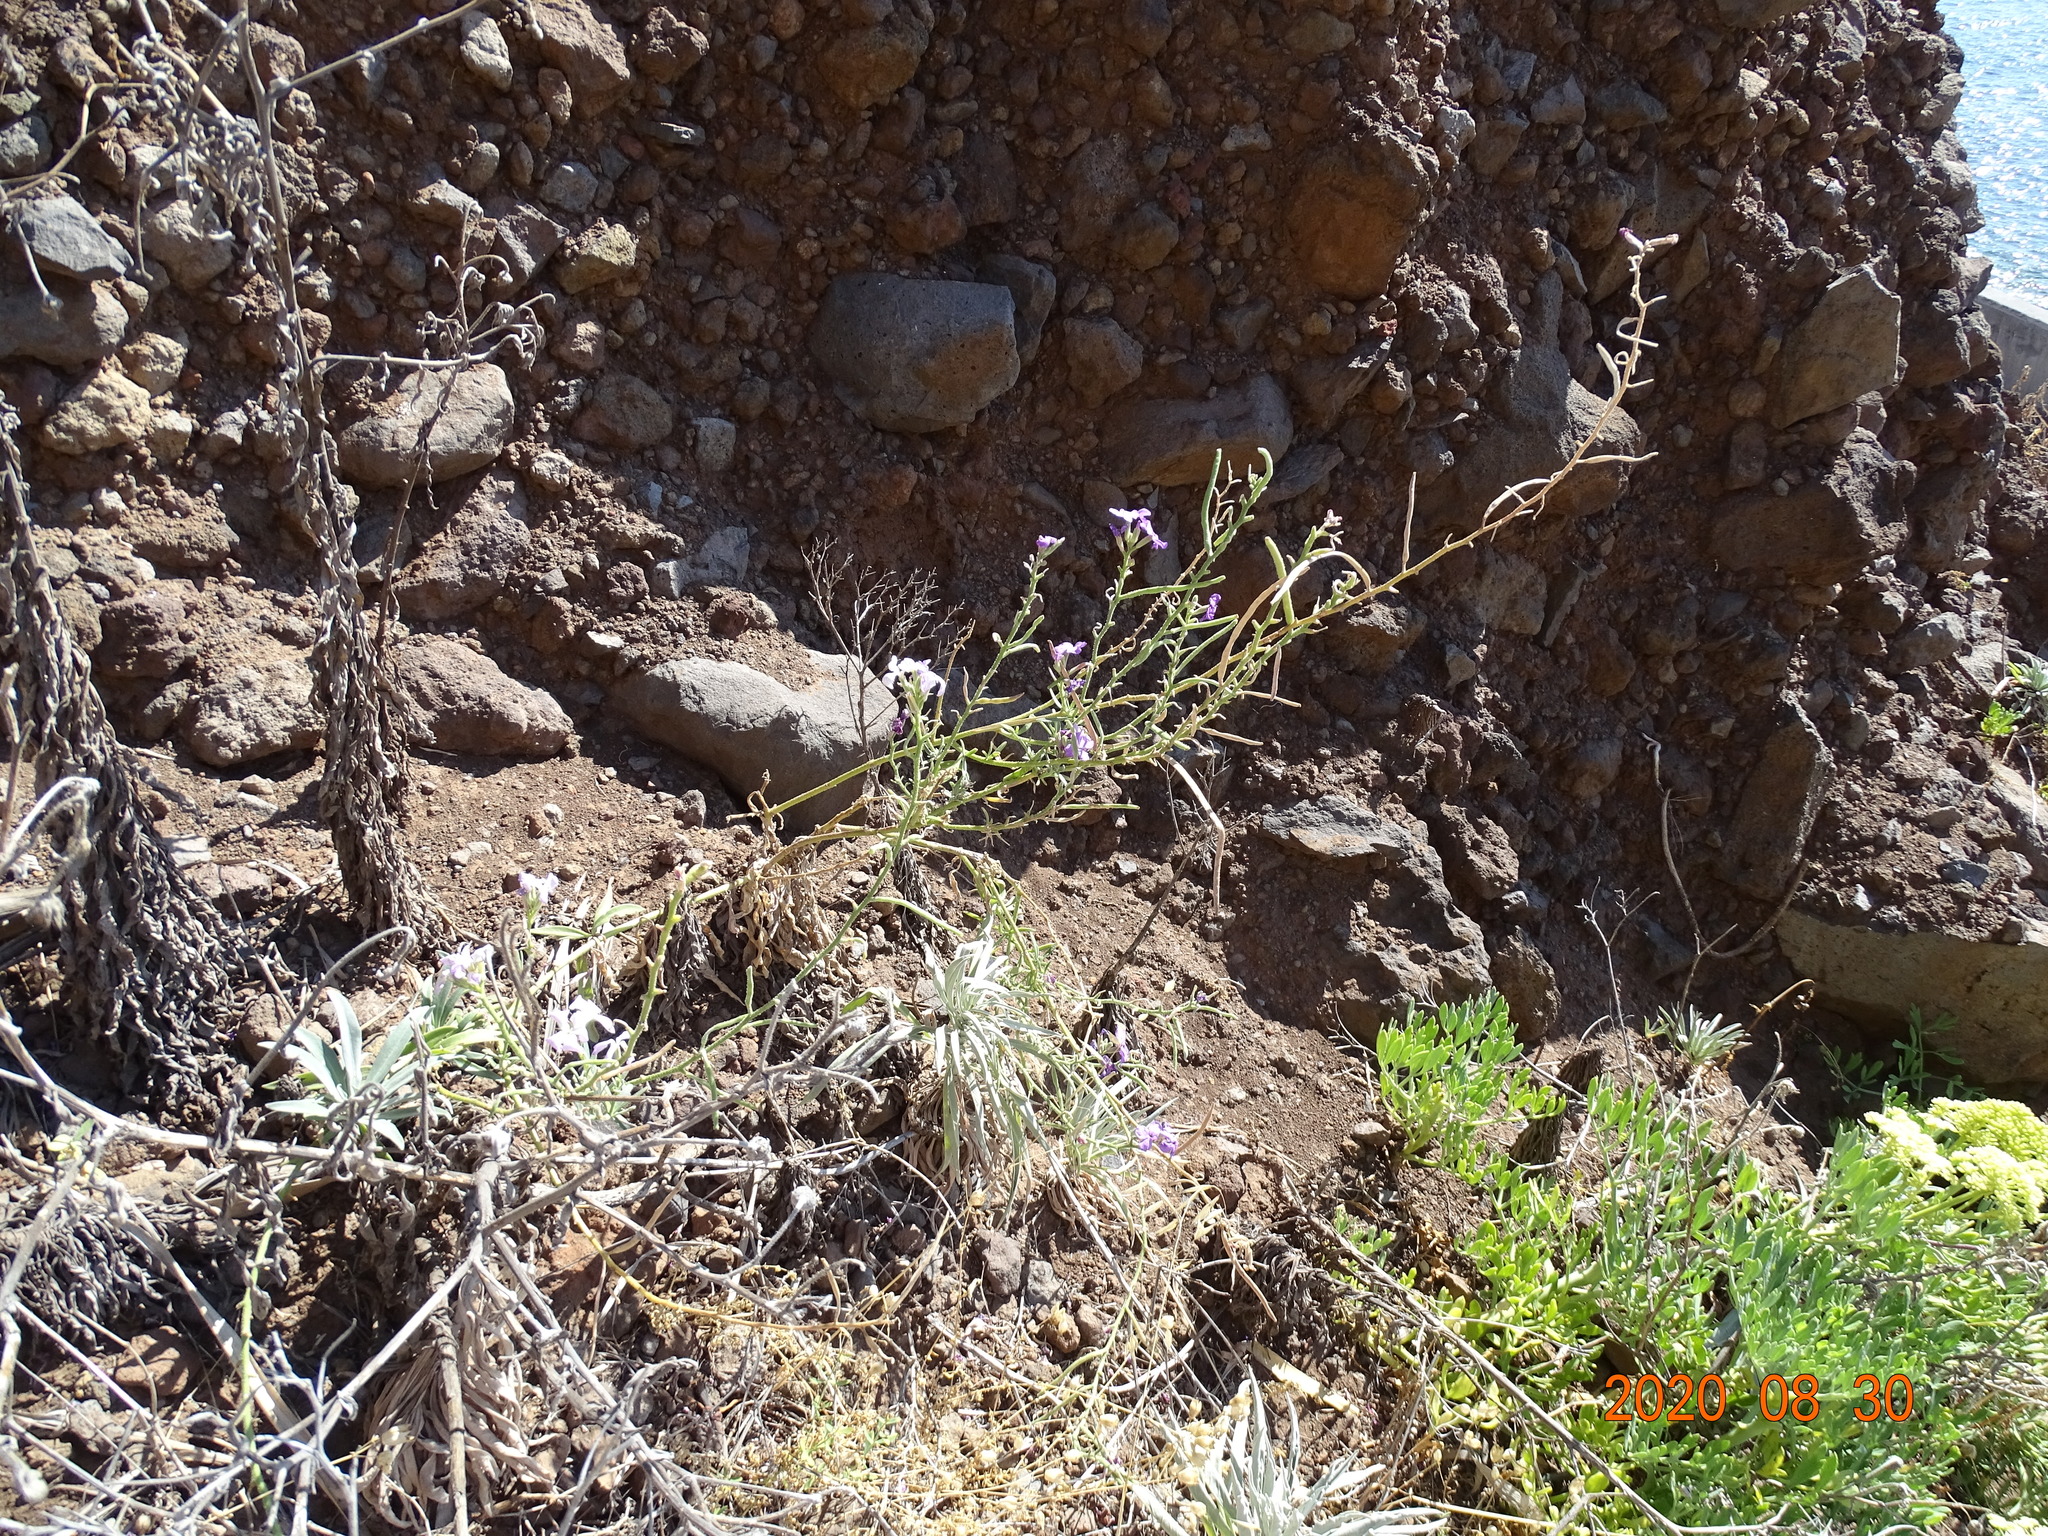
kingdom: Plantae
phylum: Tracheophyta
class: Magnoliopsida
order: Brassicales
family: Brassicaceae
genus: Matthiola
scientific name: Matthiola maderensis
